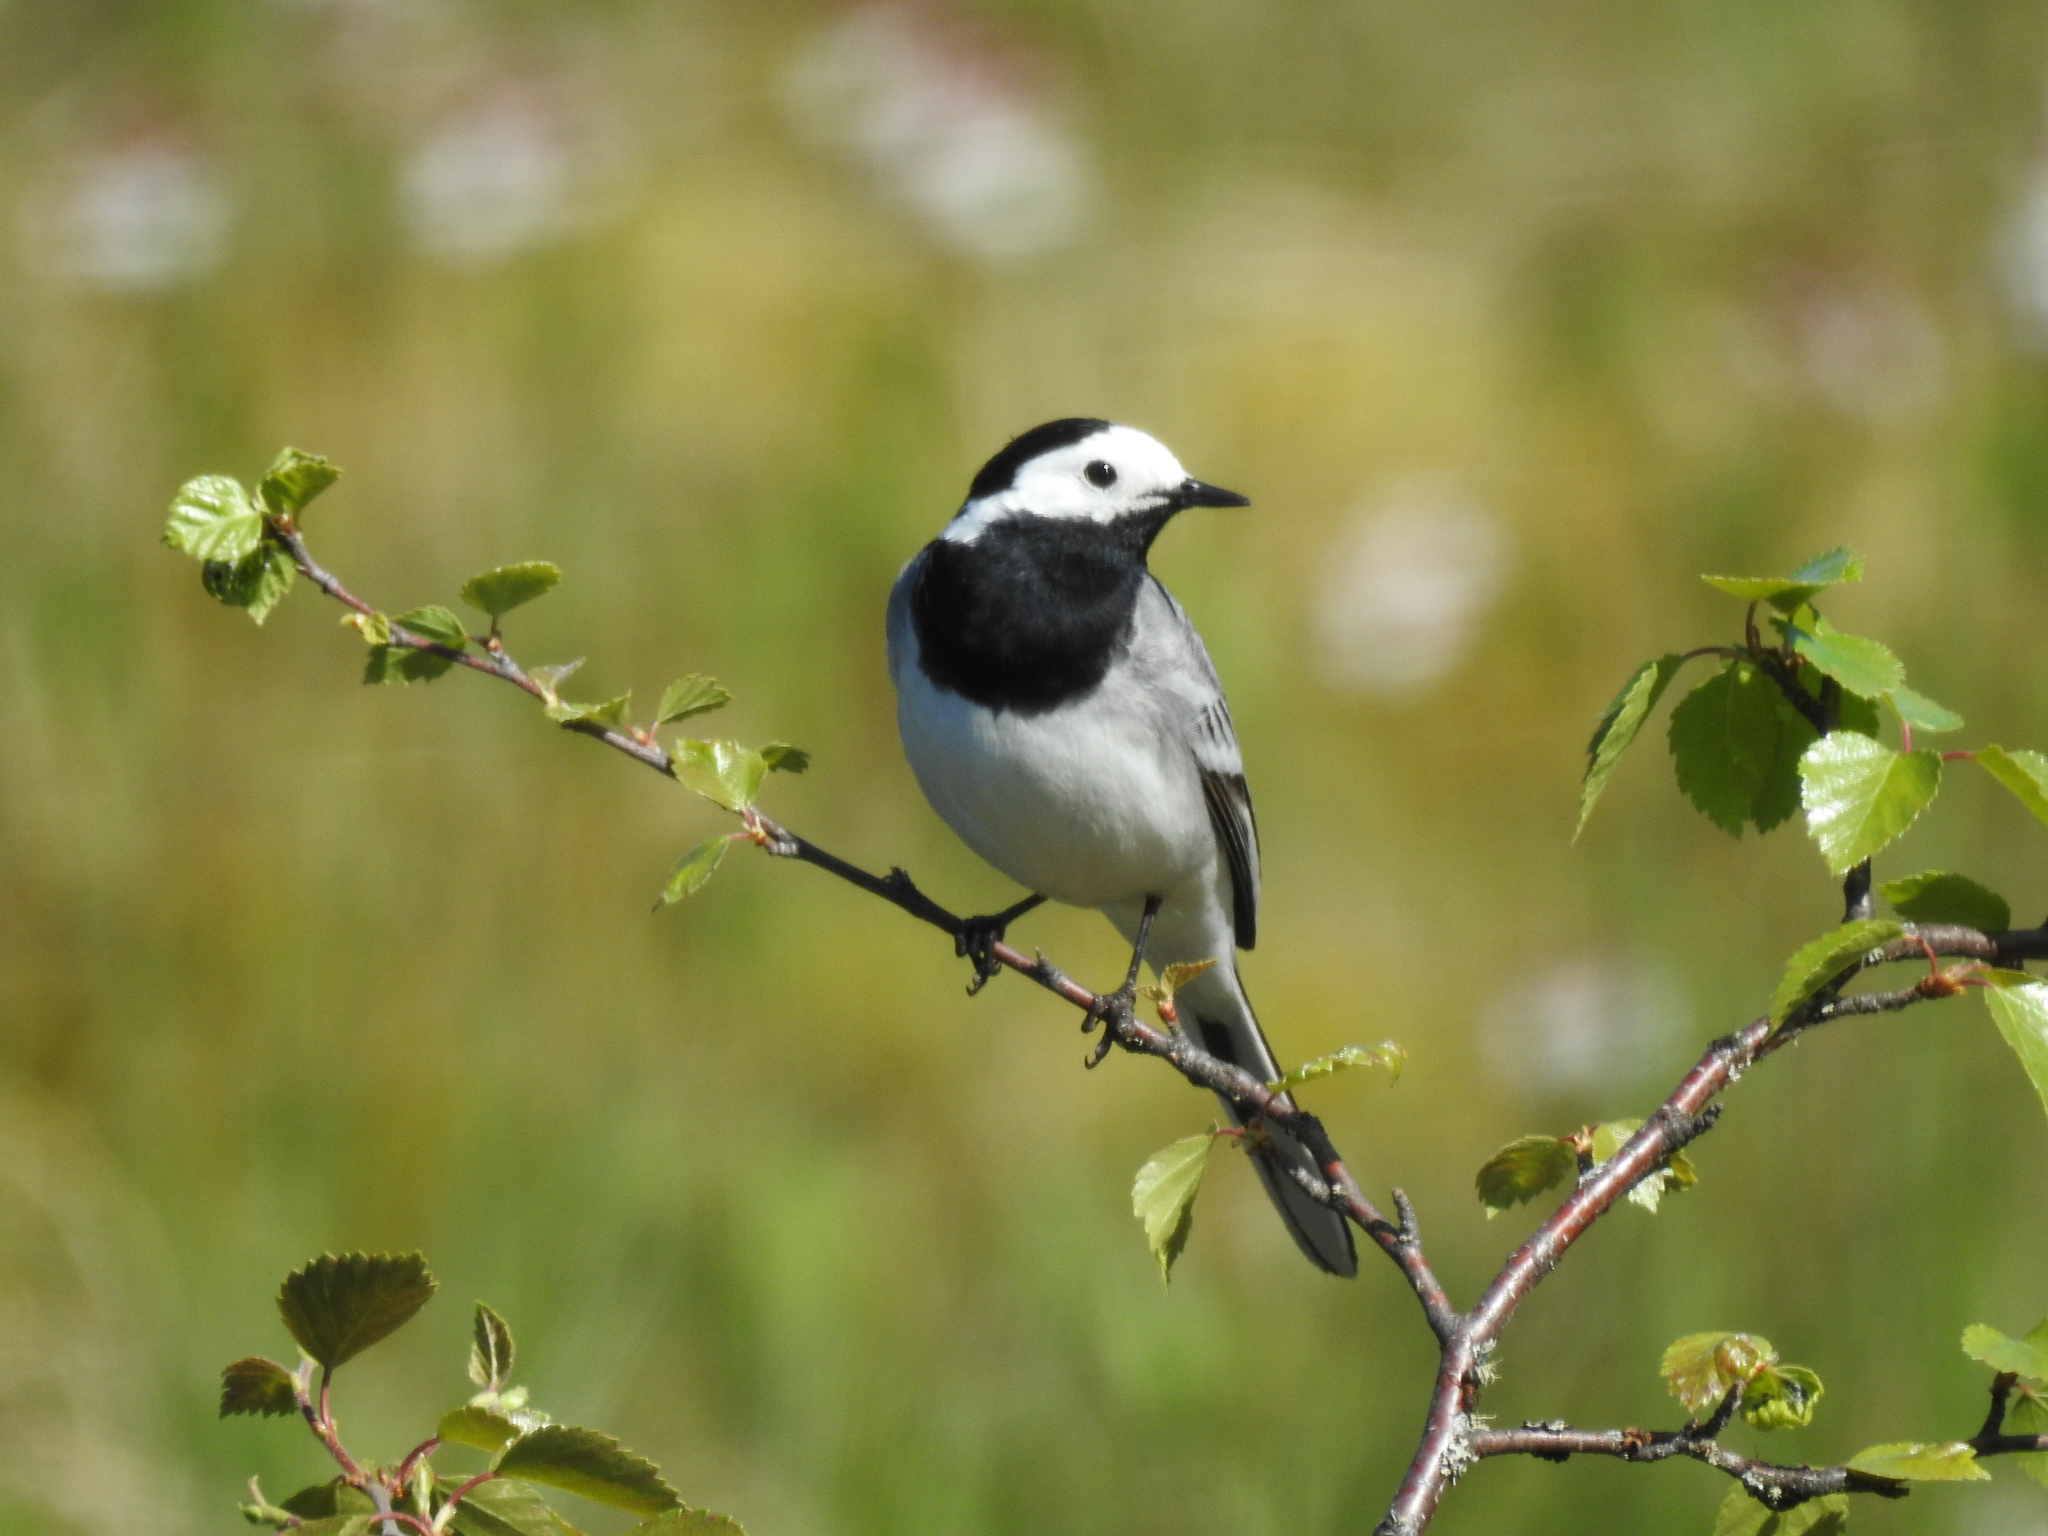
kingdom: Animalia
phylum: Chordata
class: Aves
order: Passeriformes
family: Motacillidae
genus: Motacilla
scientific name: Motacilla alba
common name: White wagtail
